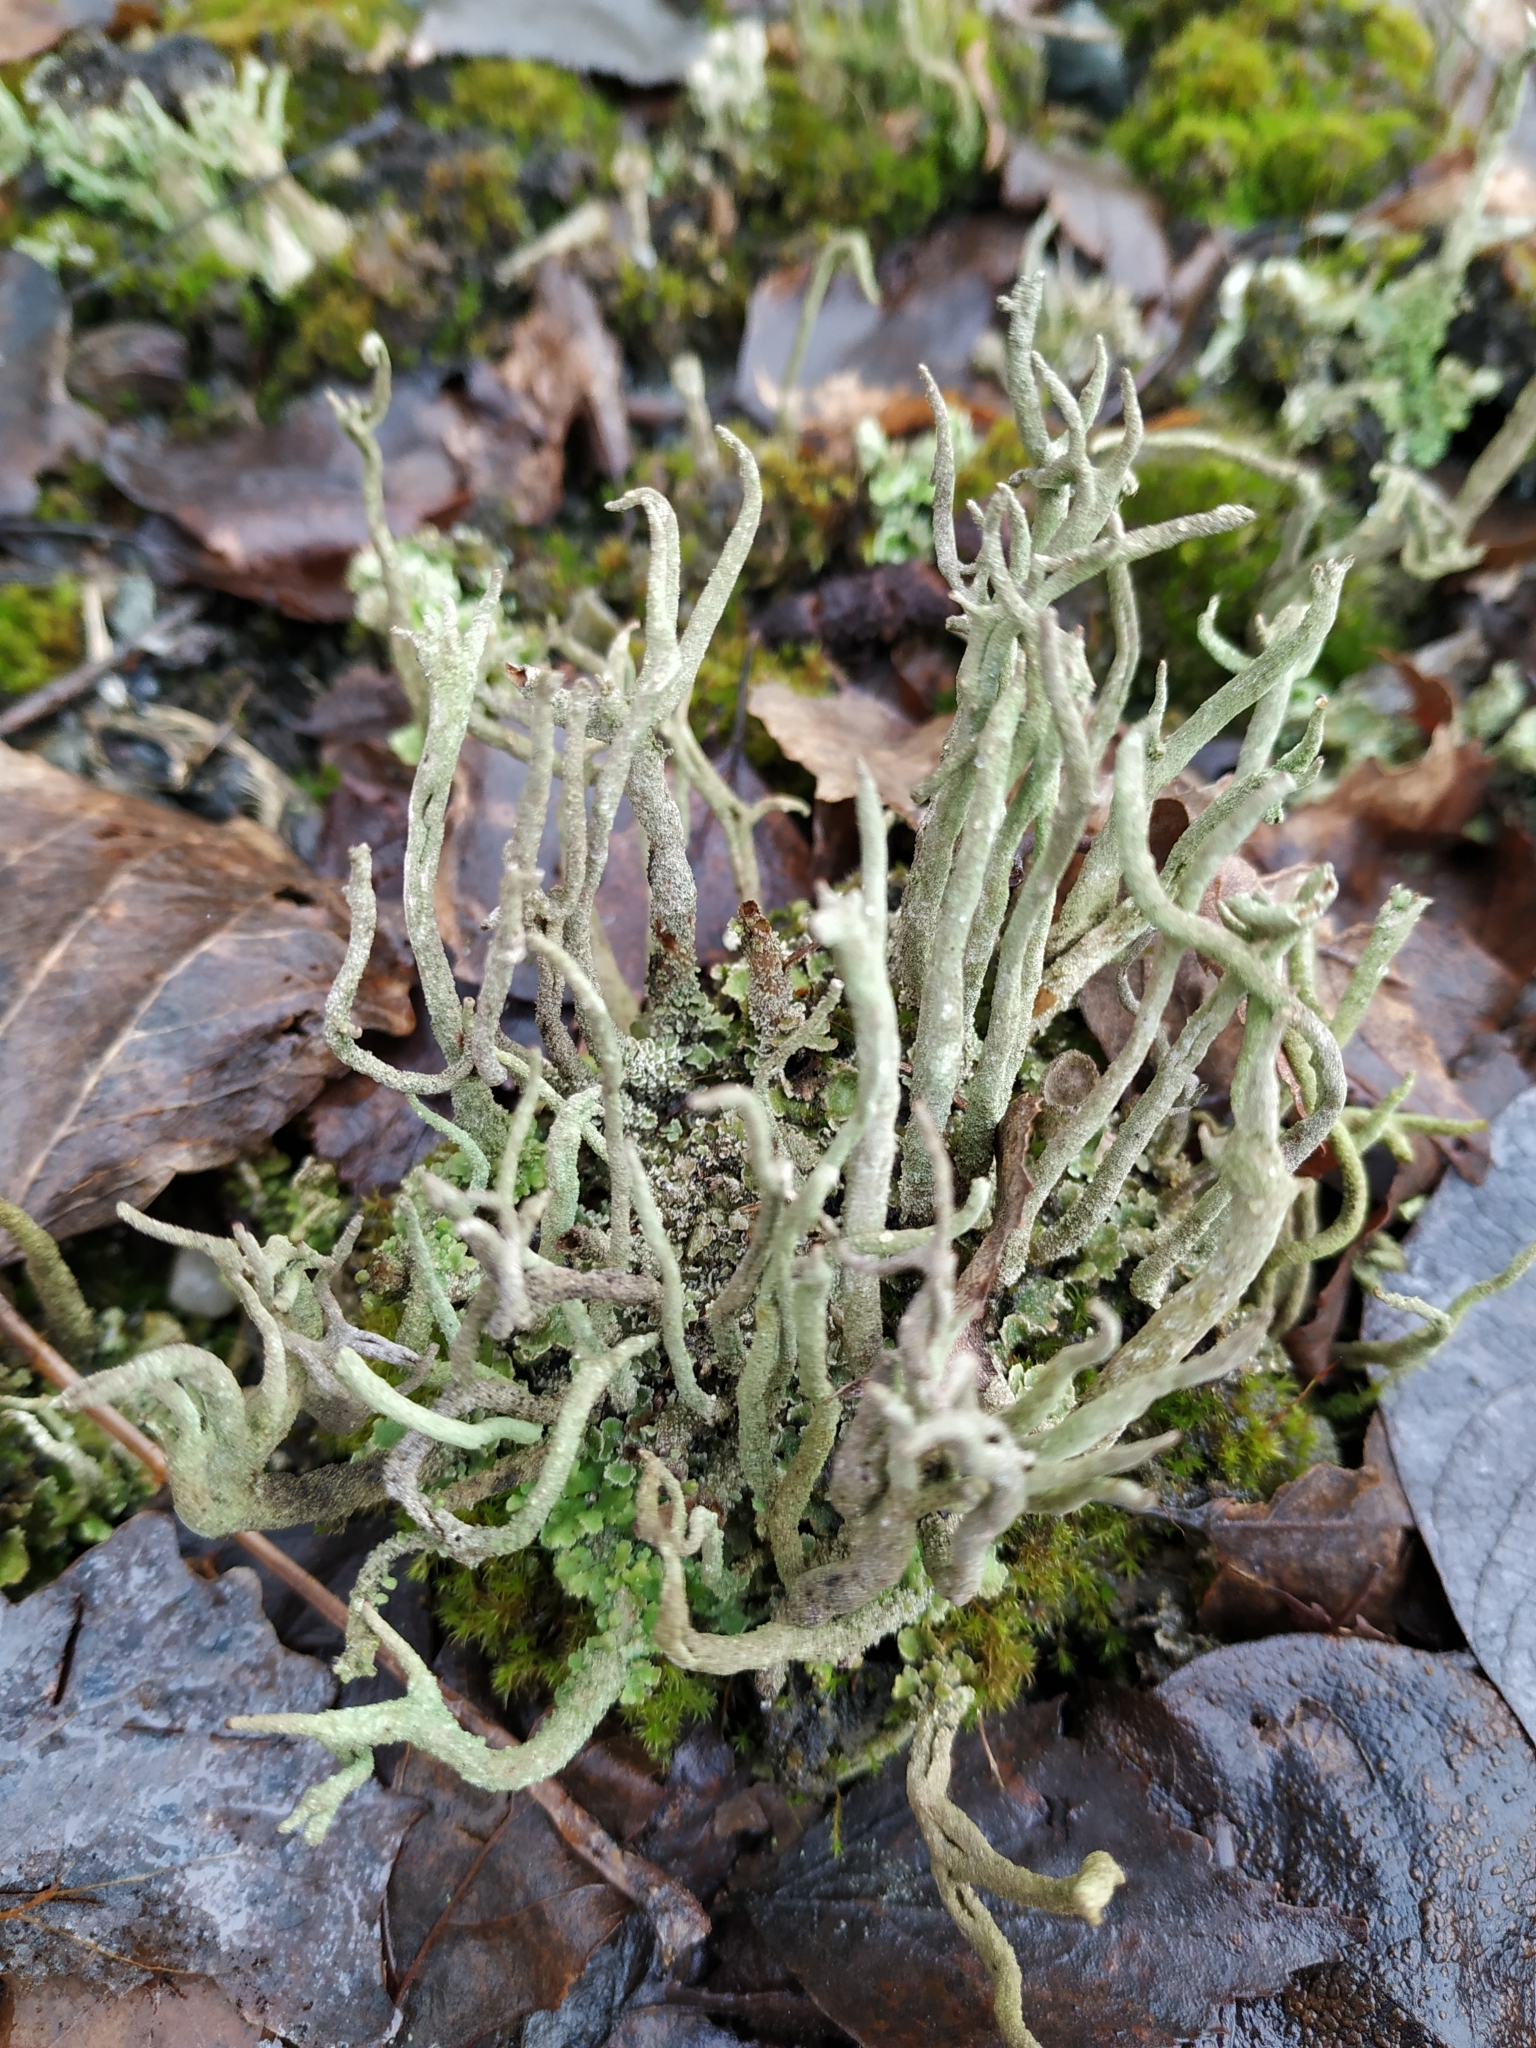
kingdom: Fungi
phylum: Ascomycota
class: Lecanoromycetes
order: Lecanorales
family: Cladoniaceae
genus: Cladonia
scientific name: Cladonia subulata
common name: Antlered powderhorn
